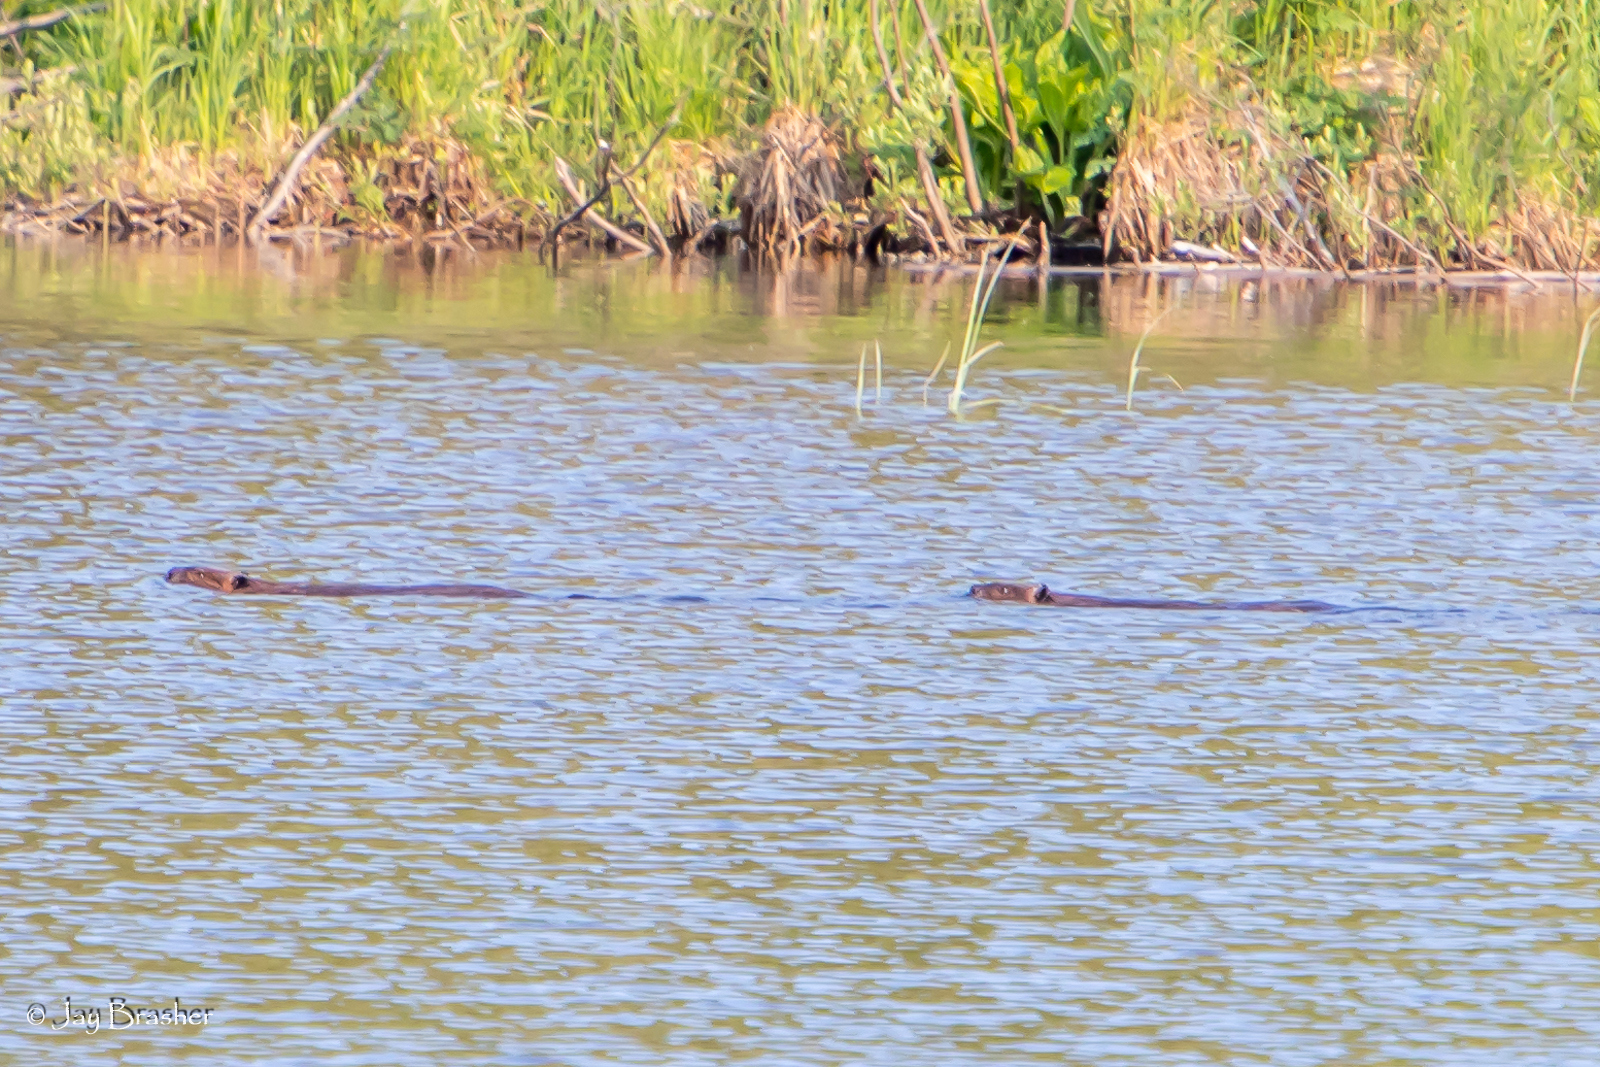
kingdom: Animalia
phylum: Chordata
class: Mammalia
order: Rodentia
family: Castoridae
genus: Castor
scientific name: Castor canadensis
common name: American beaver
